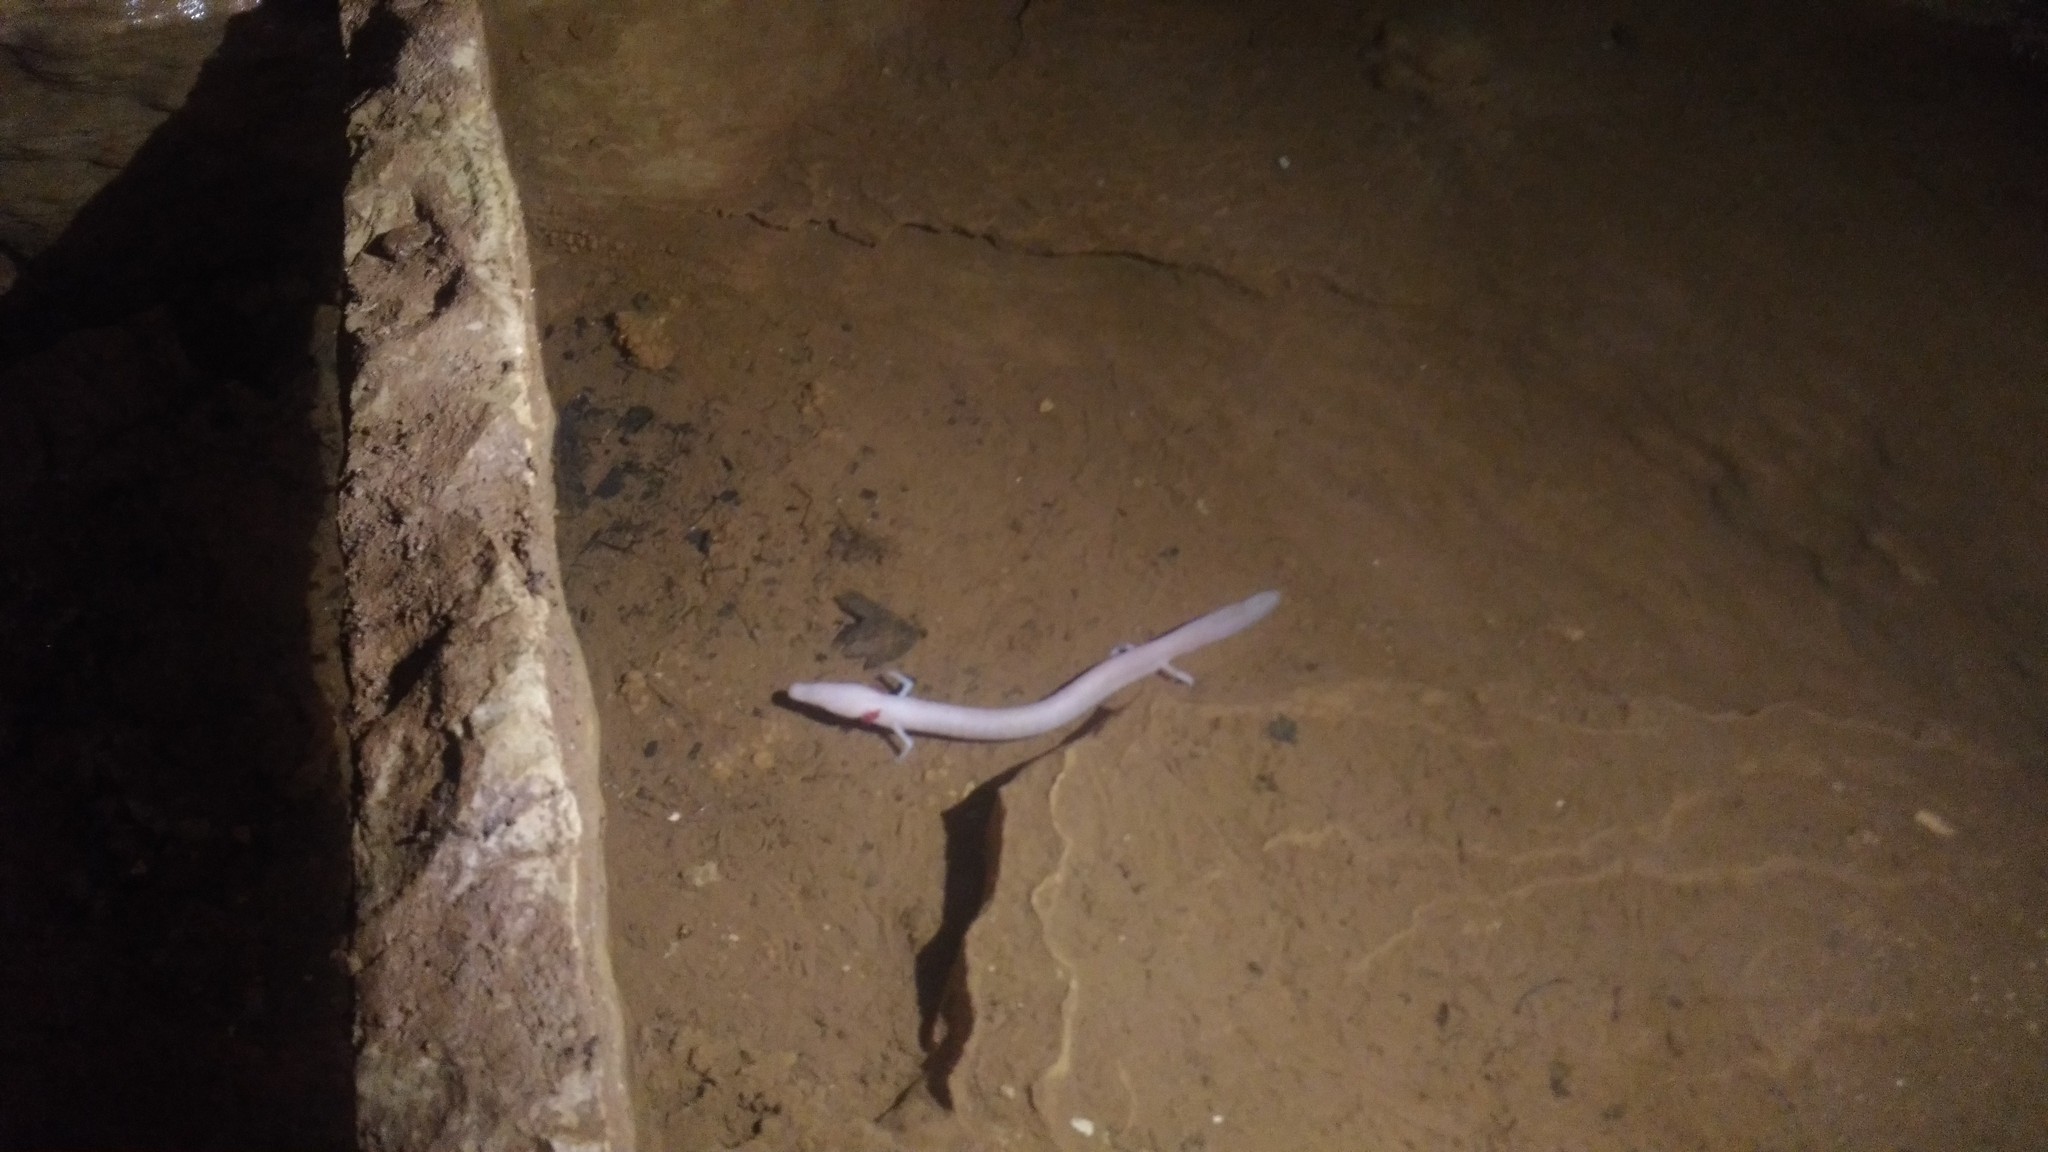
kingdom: Animalia
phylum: Chordata
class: Amphibia
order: Caudata
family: Proteidae
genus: Proteus
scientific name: Proteus anguinus
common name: Olm
